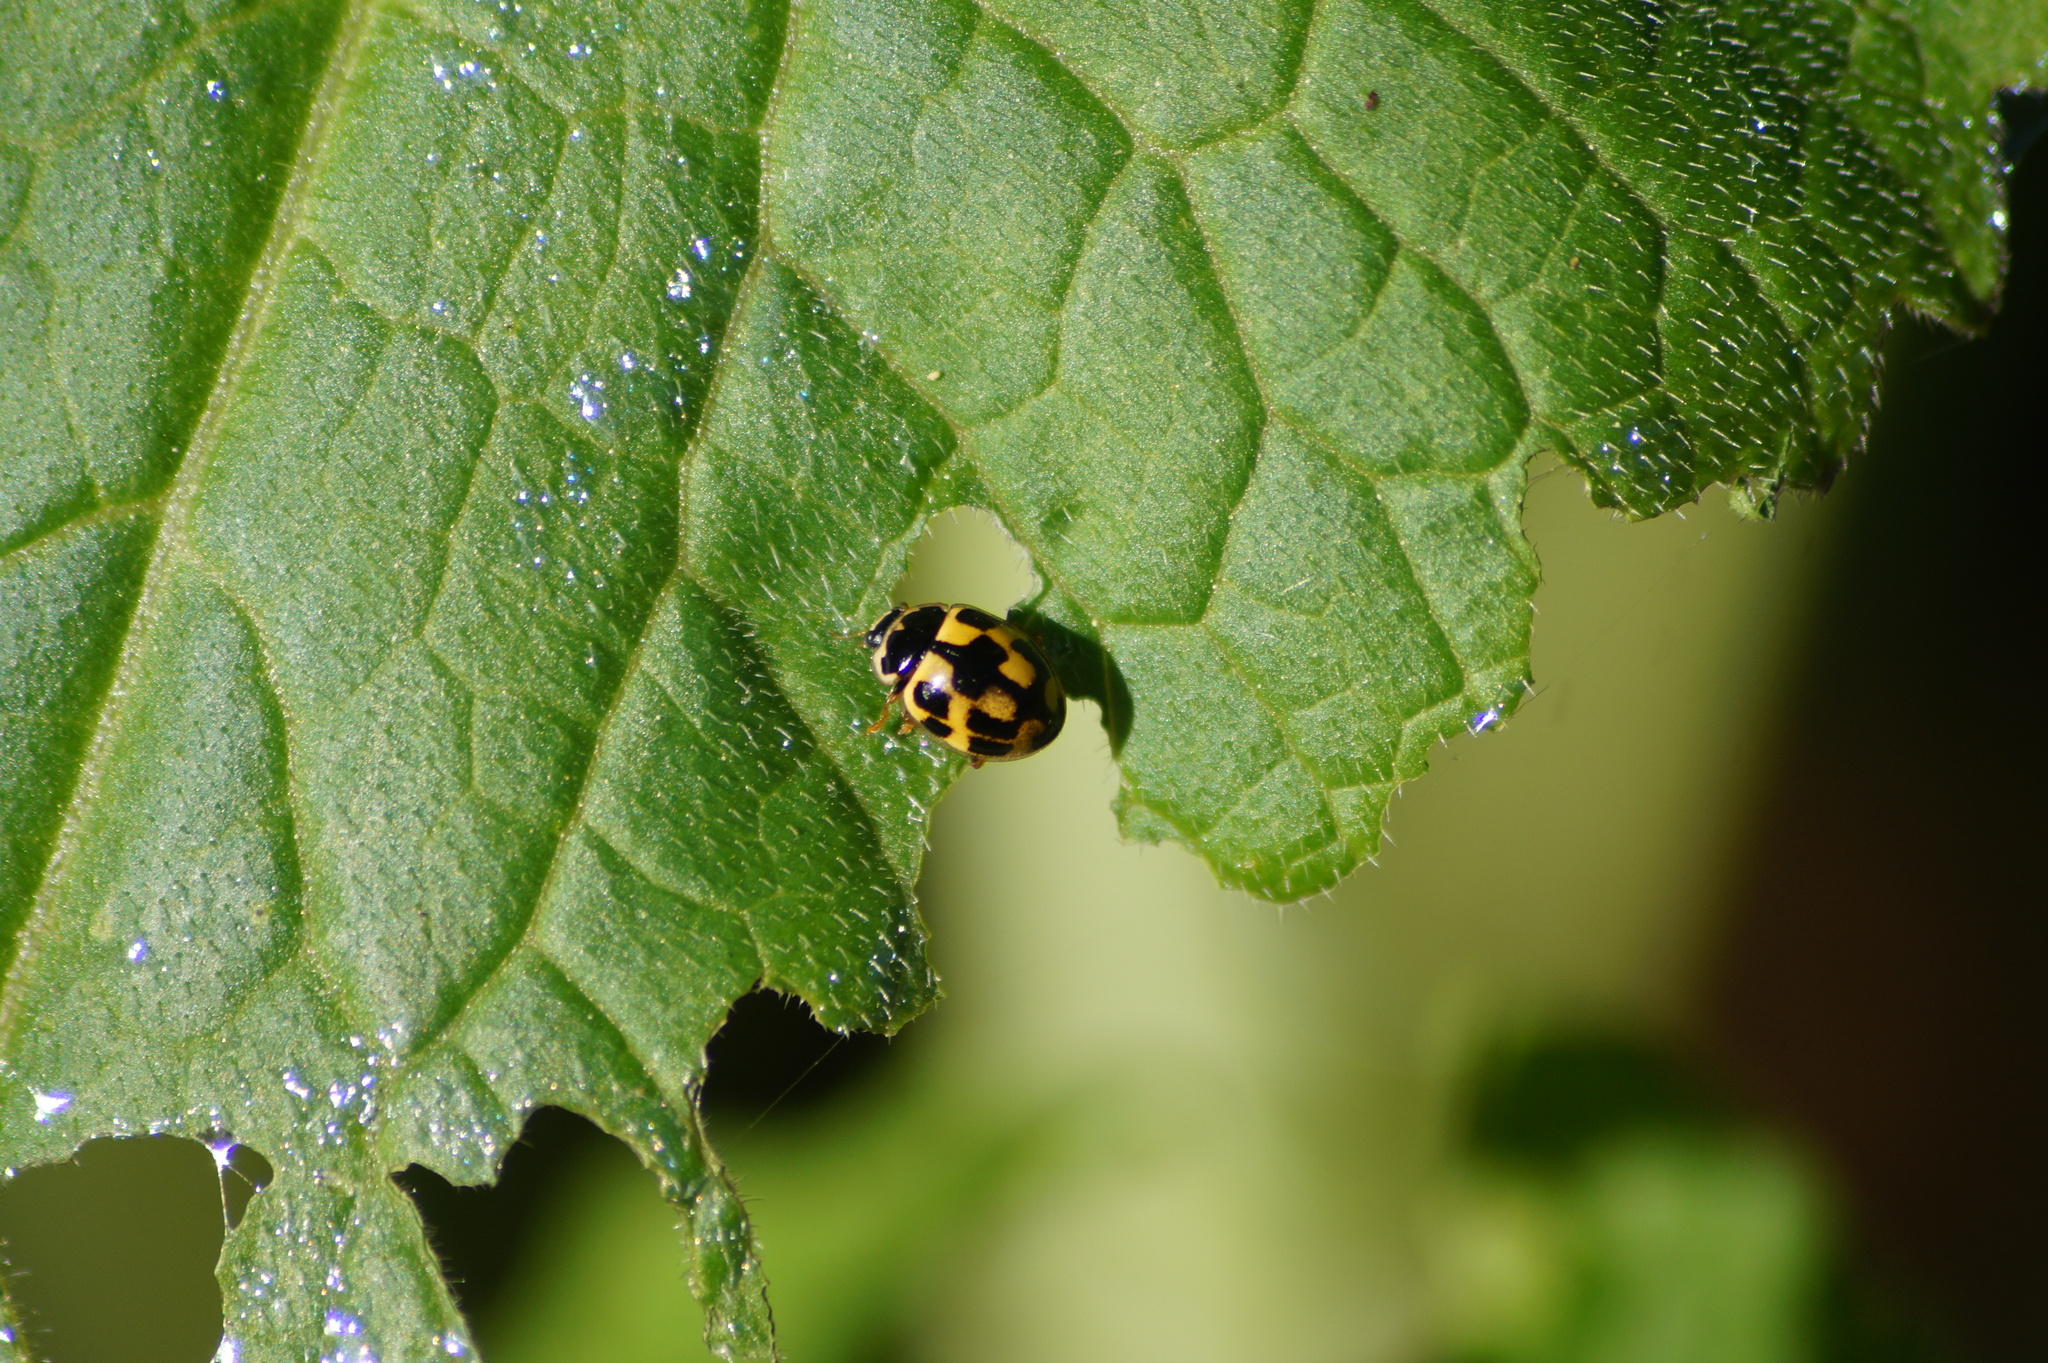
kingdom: Animalia
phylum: Arthropoda
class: Insecta
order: Coleoptera
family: Coccinellidae
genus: Propylaea
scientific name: Propylaea quatuordecimpunctata
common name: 14-spotted ladybird beetle
